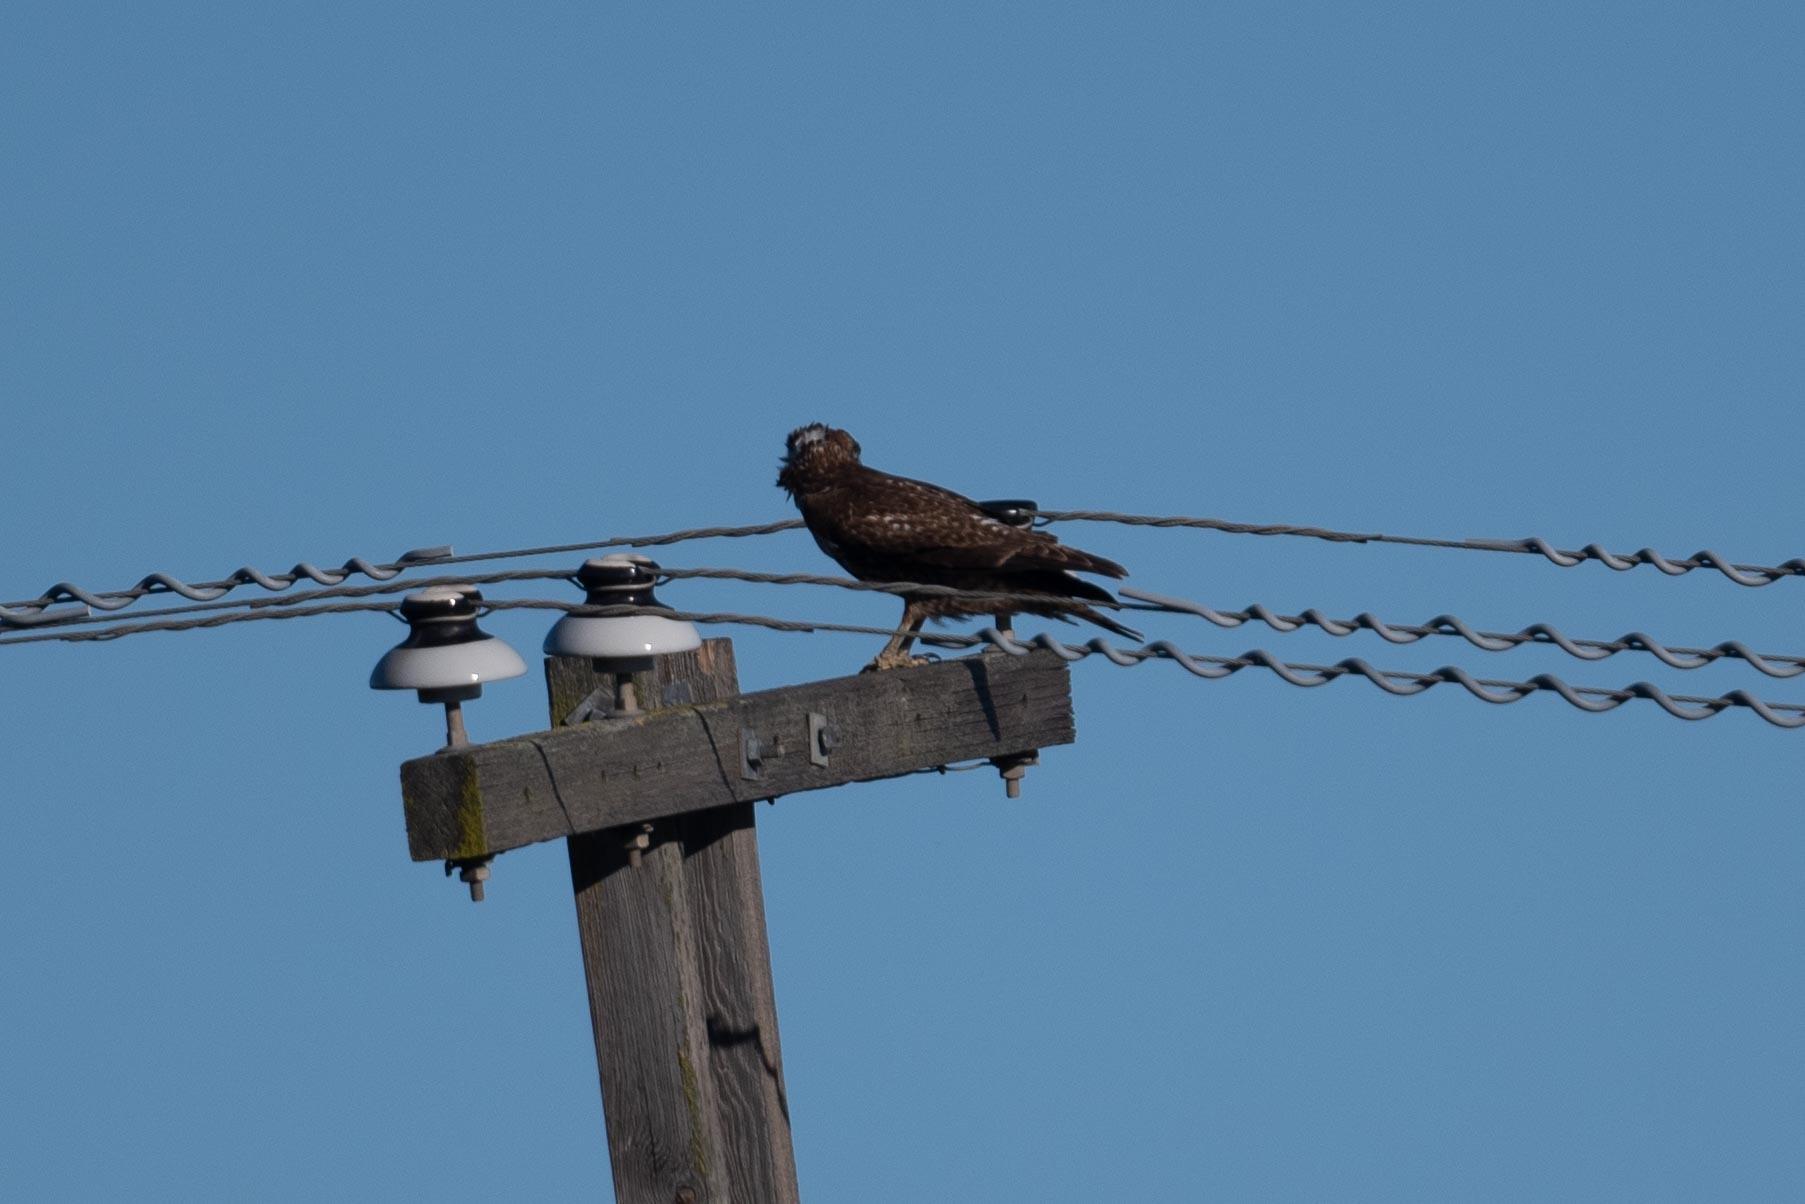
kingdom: Animalia
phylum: Chordata
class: Aves
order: Accipitriformes
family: Accipitridae
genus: Buteo
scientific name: Buteo jamaicensis
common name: Red-tailed hawk
